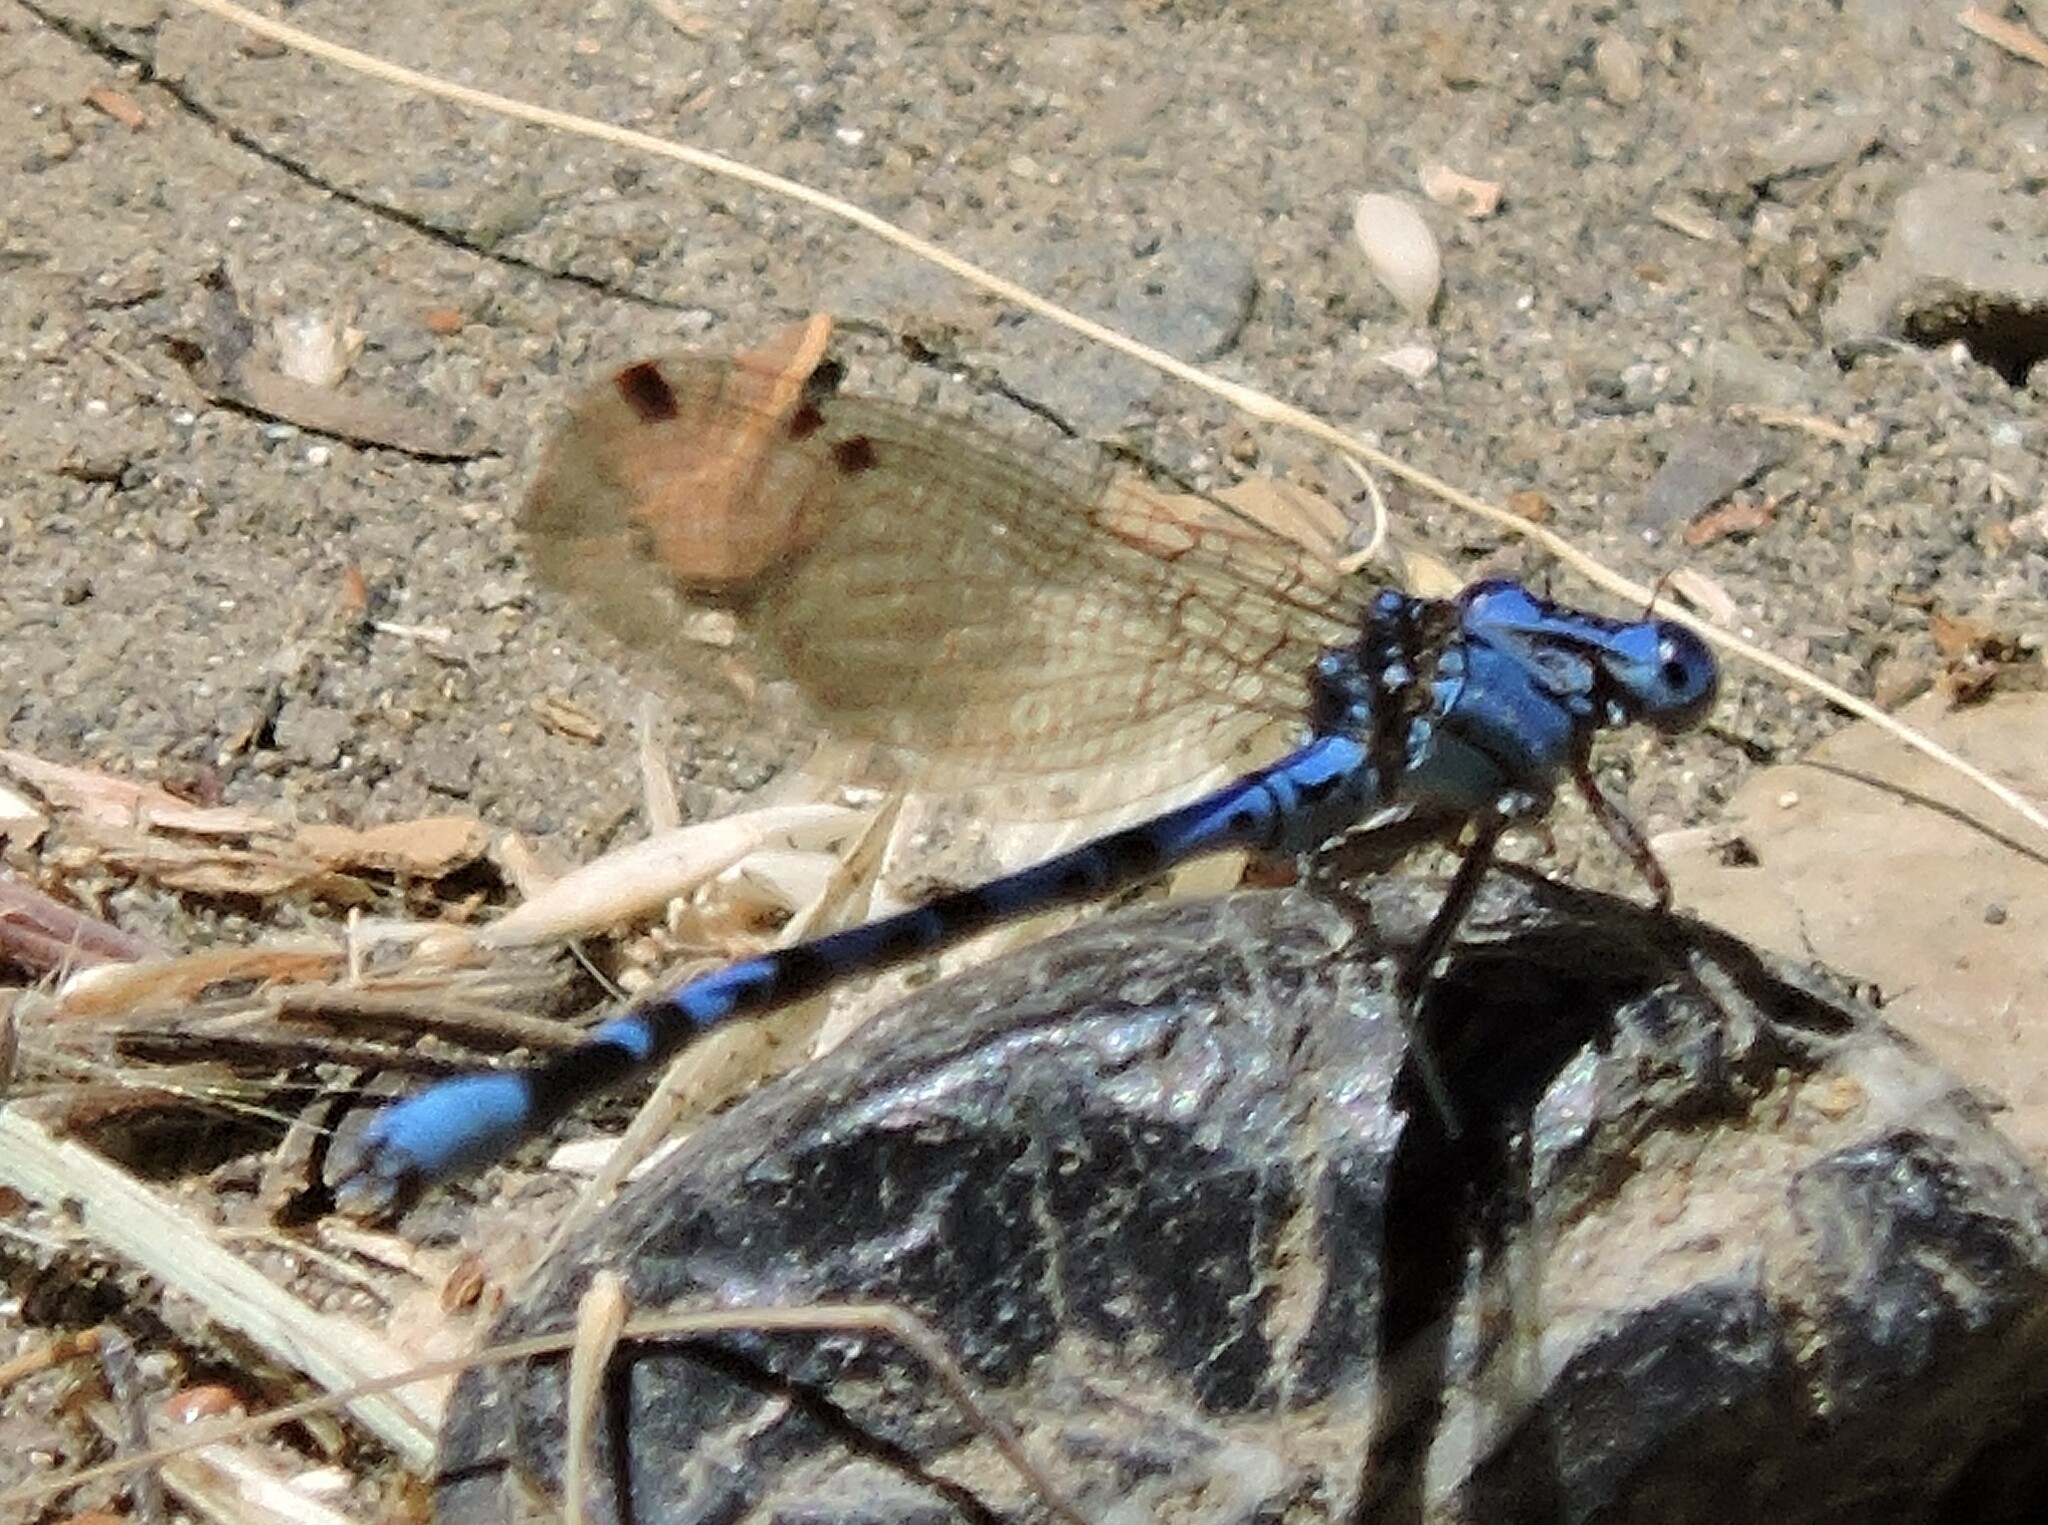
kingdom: Animalia
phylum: Arthropoda
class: Insecta
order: Odonata
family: Coenagrionidae
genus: Argia
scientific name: Argia vivida
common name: Vivid dancer
